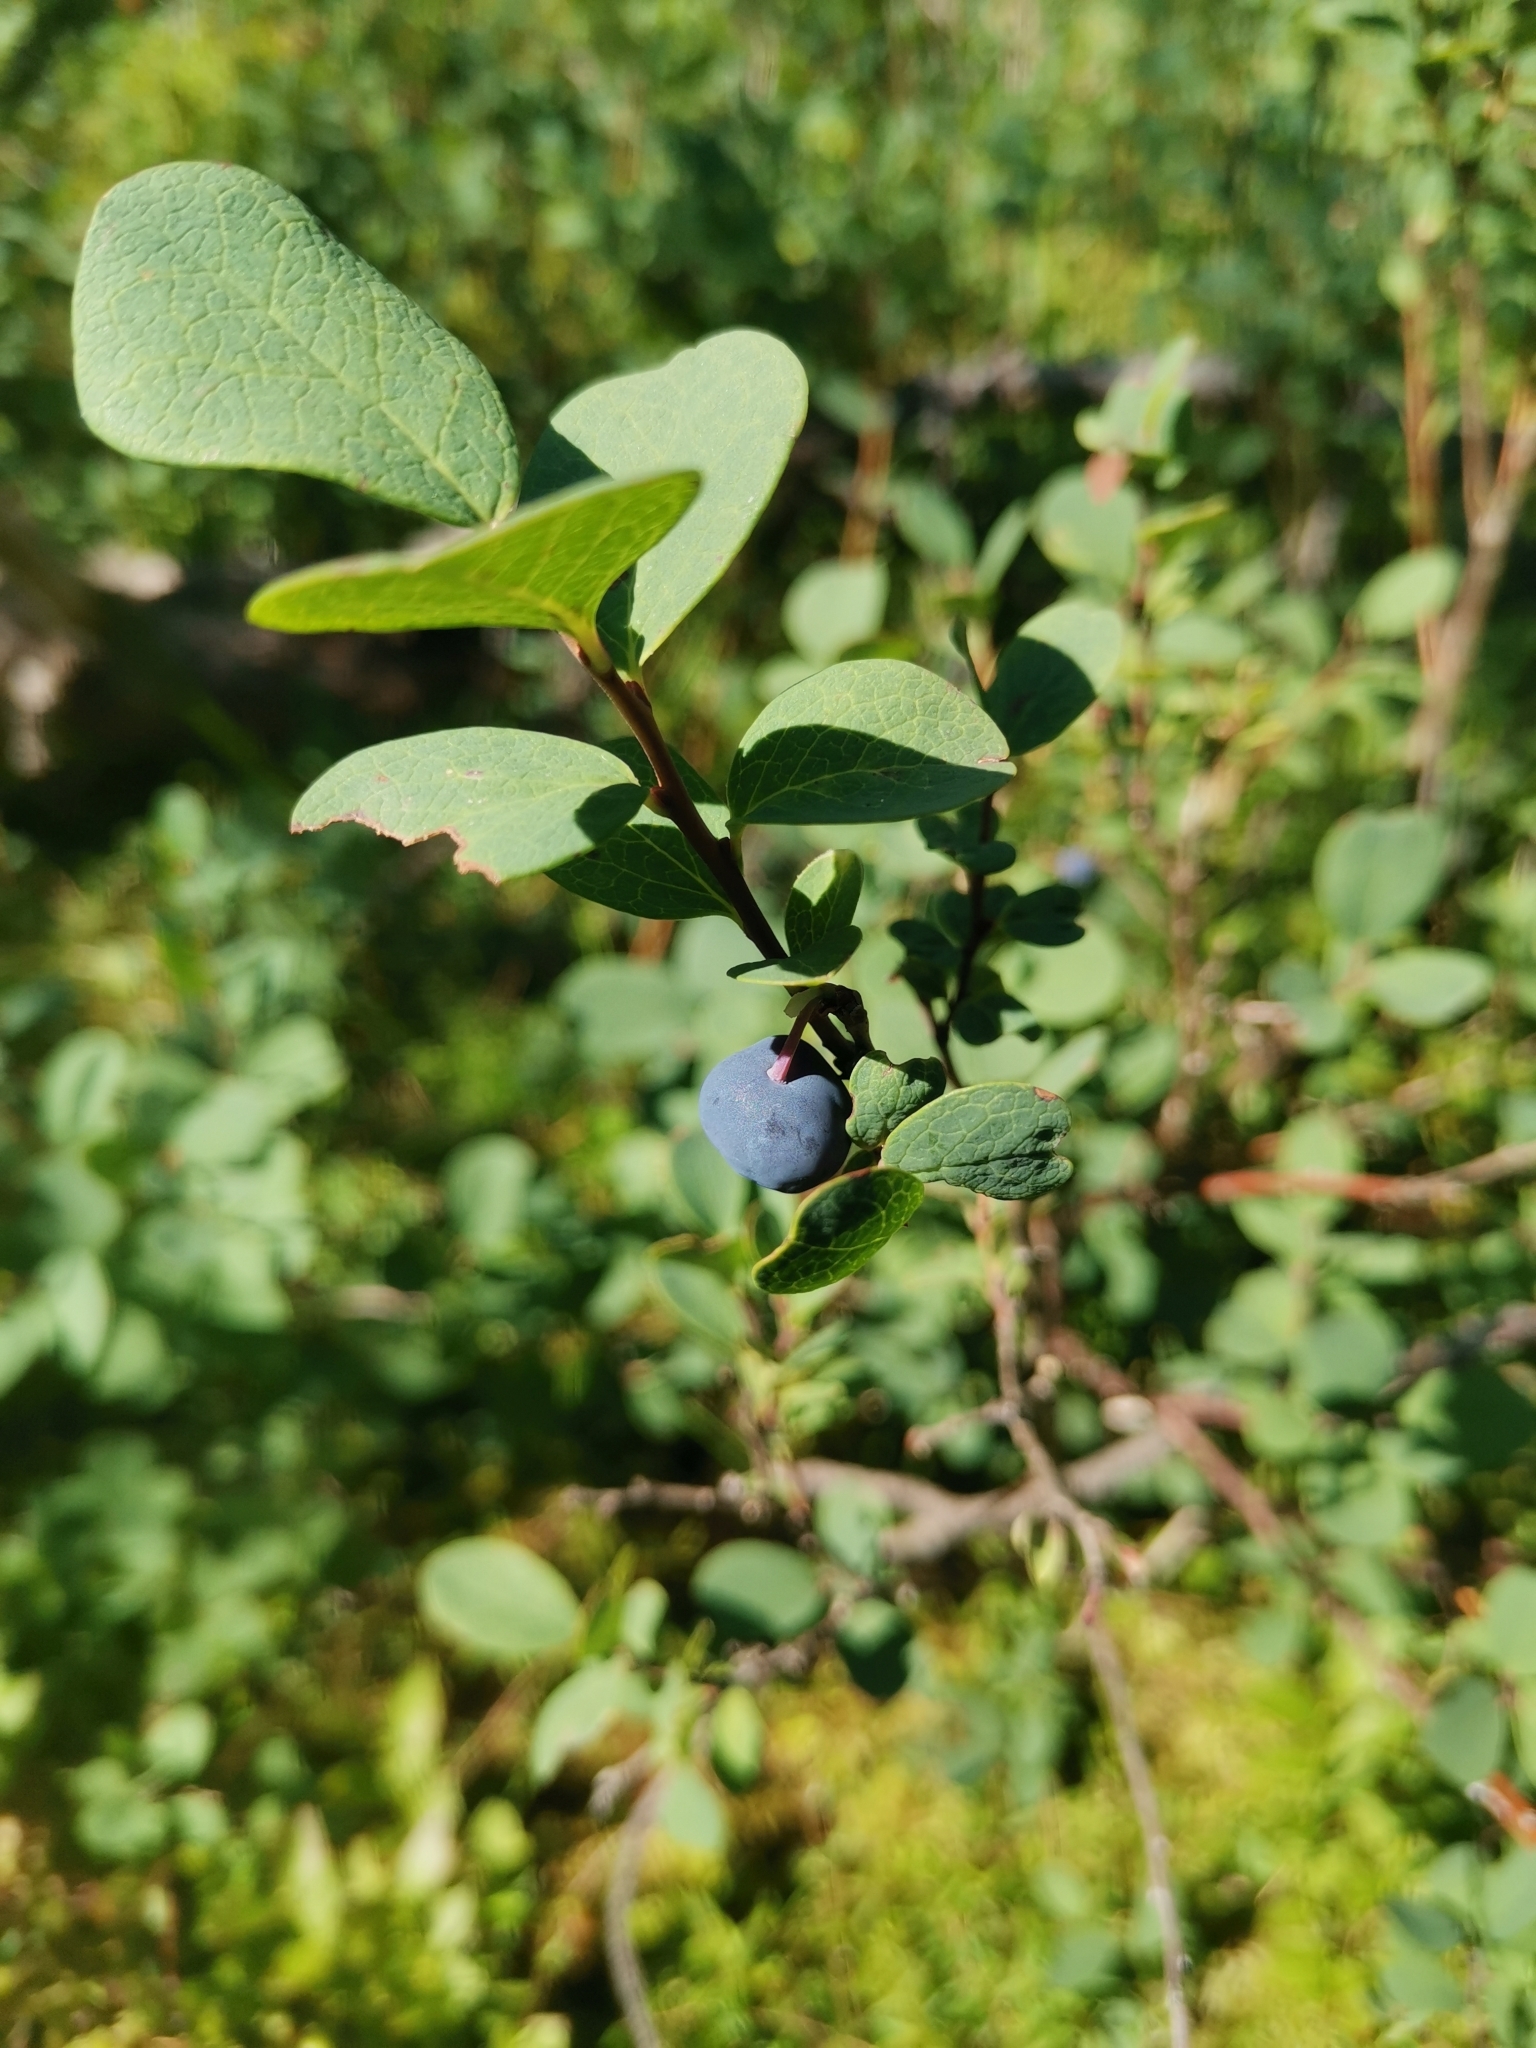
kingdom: Plantae
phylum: Tracheophyta
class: Magnoliopsida
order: Ericales
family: Ericaceae
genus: Vaccinium
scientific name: Vaccinium uliginosum
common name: Bog bilberry
